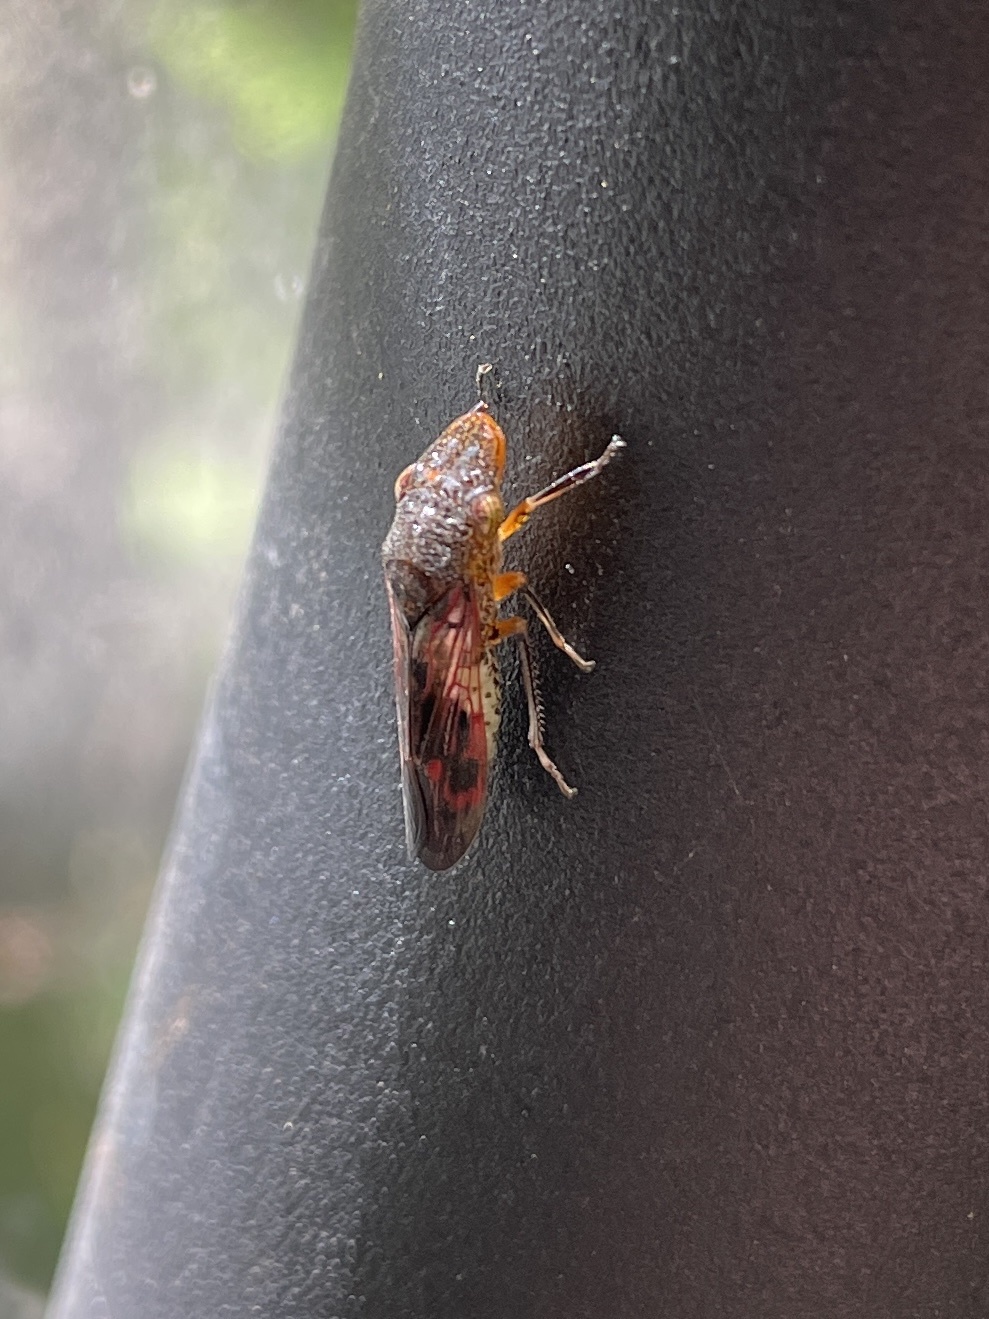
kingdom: Animalia
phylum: Arthropoda
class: Insecta
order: Hemiptera
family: Cicadellidae
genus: Homalodisca
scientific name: Homalodisca vitripennis
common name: Glassy-winged sharpshooter
